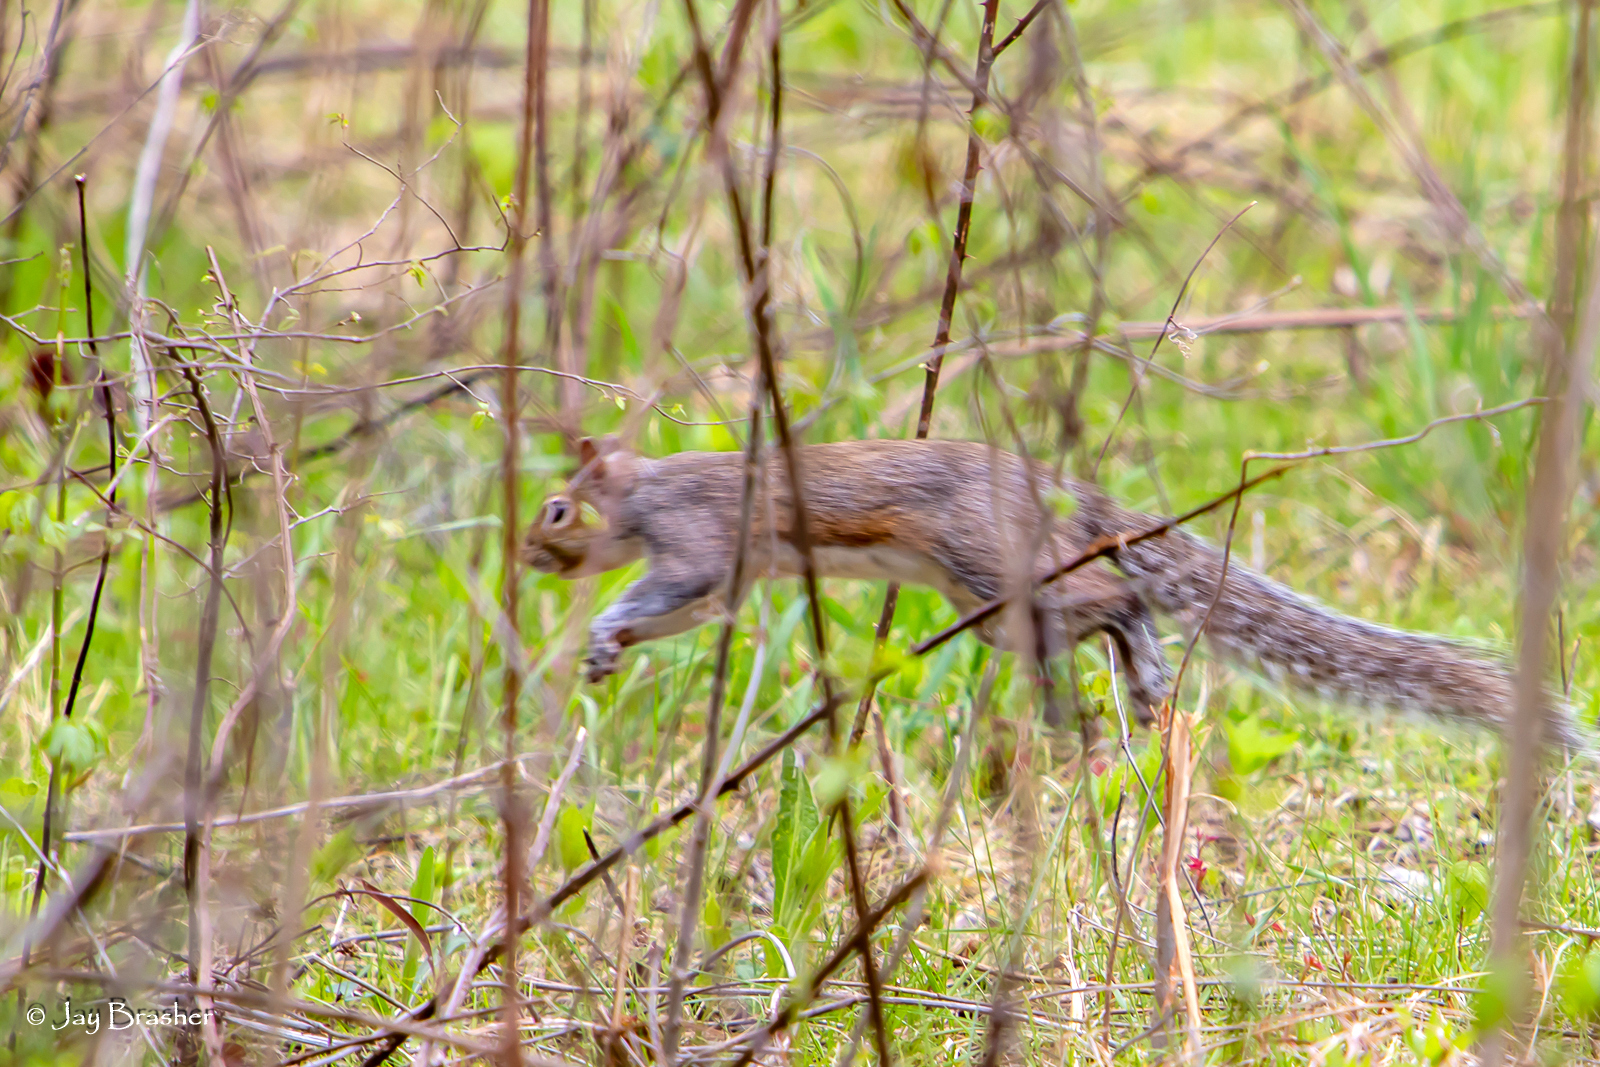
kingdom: Animalia
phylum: Chordata
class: Mammalia
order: Rodentia
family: Sciuridae
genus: Sciurus
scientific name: Sciurus carolinensis
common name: Eastern gray squirrel
